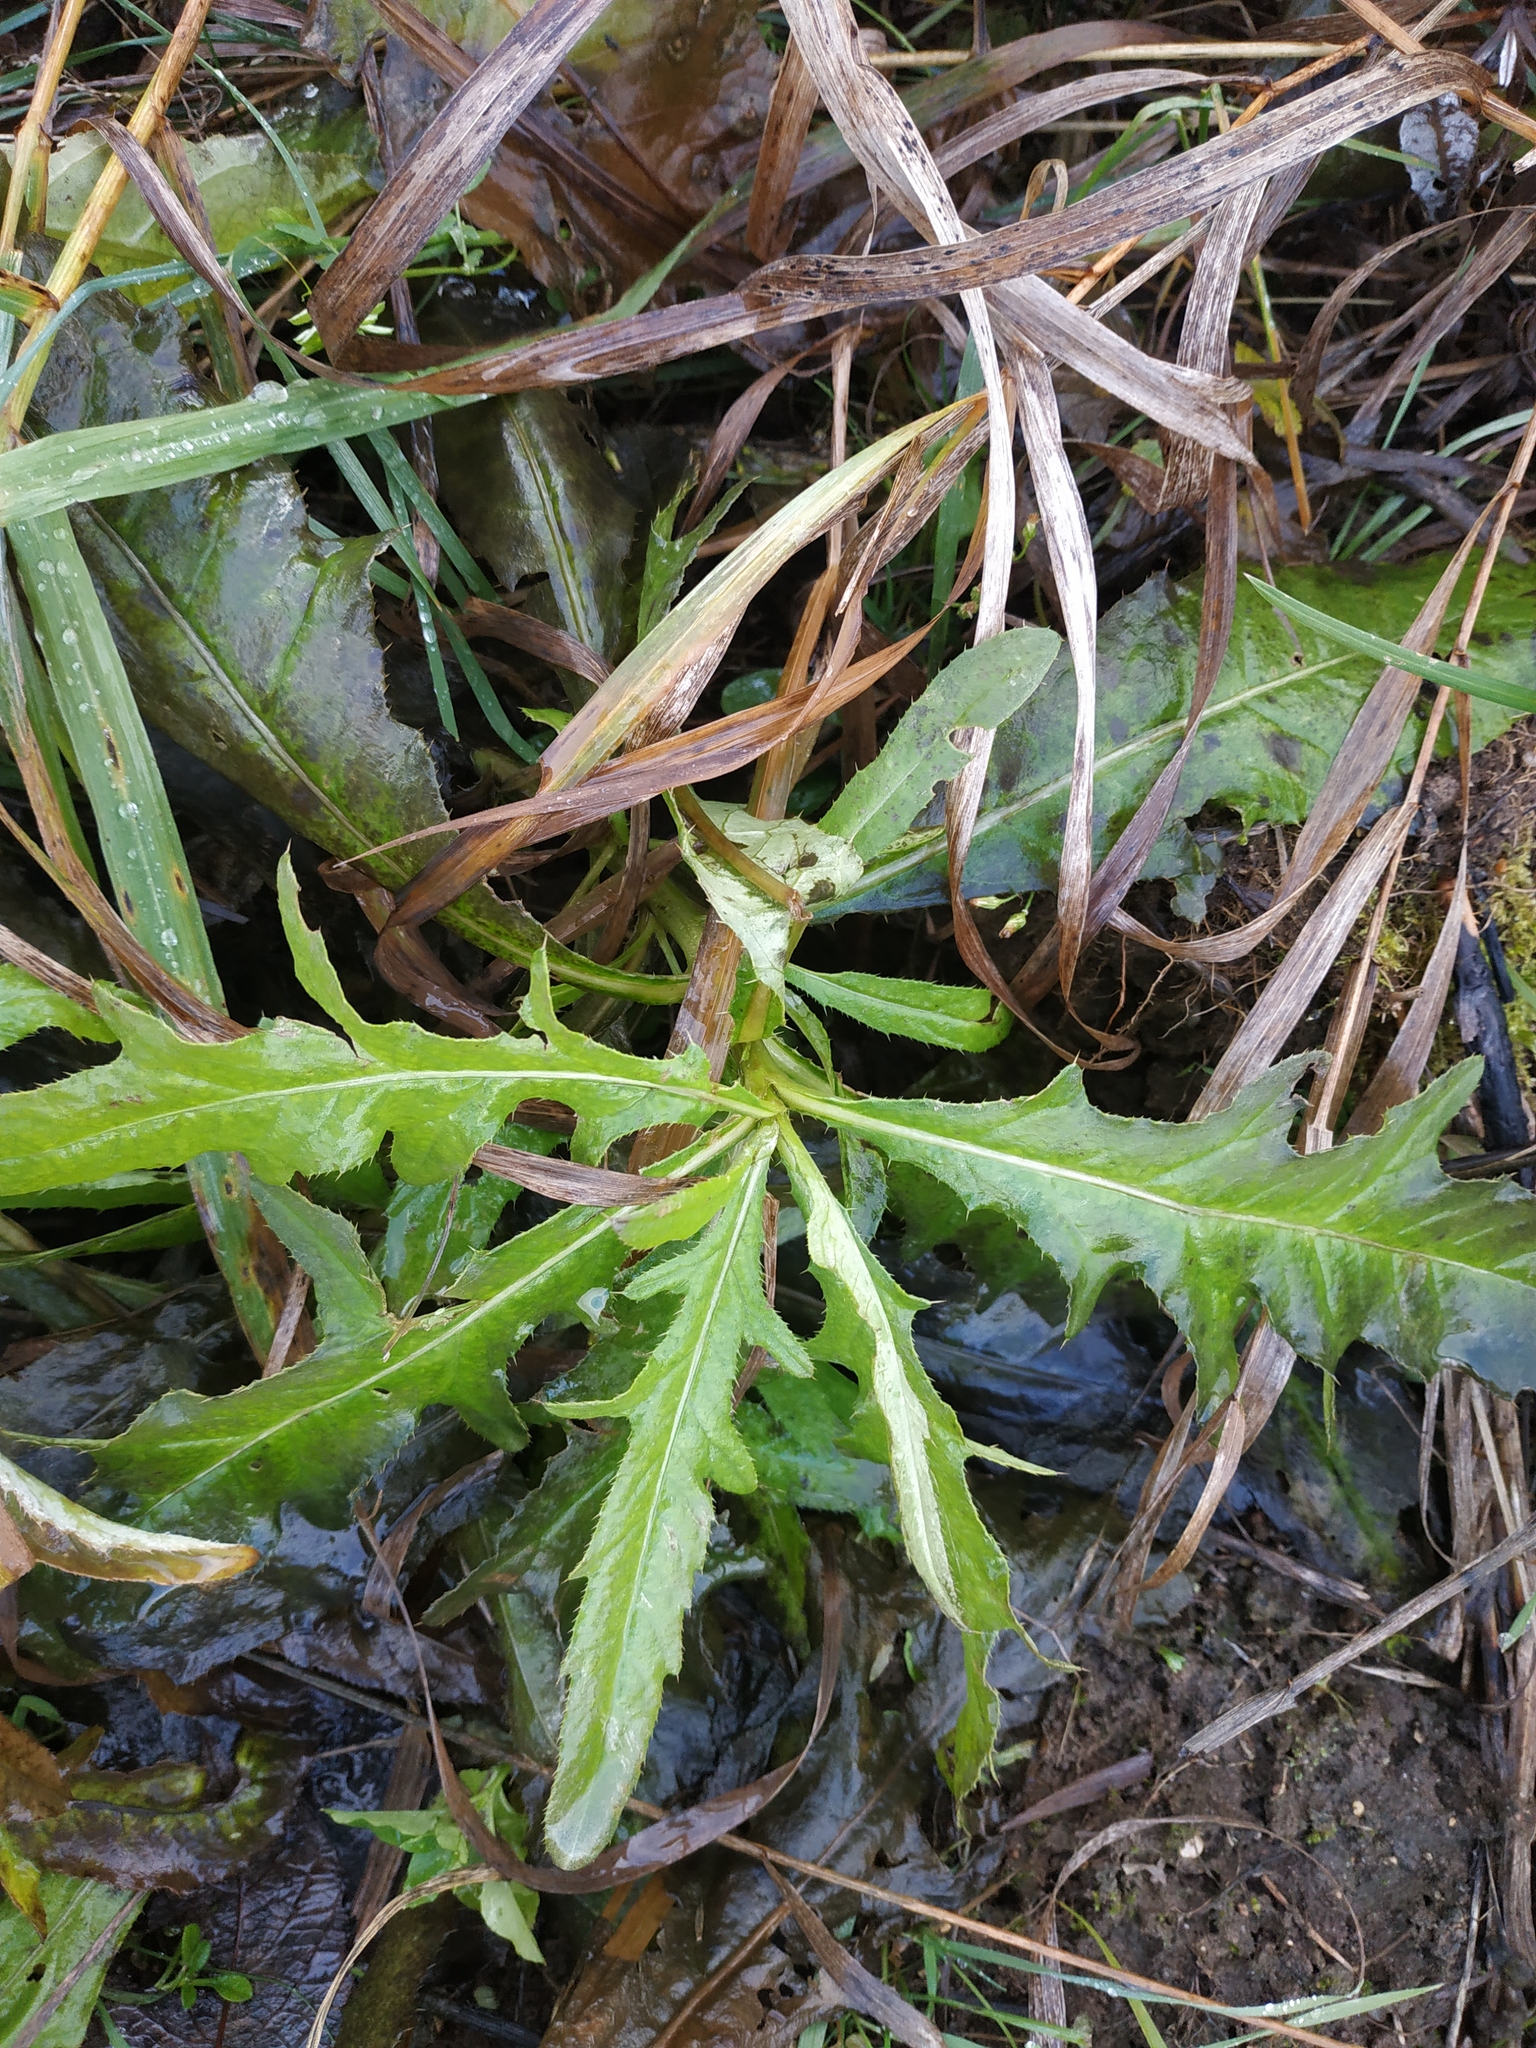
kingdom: Plantae
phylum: Tracheophyta
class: Magnoliopsida
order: Asterales
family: Asteraceae
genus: Cirsium
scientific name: Cirsium arvense
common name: Creeping thistle
